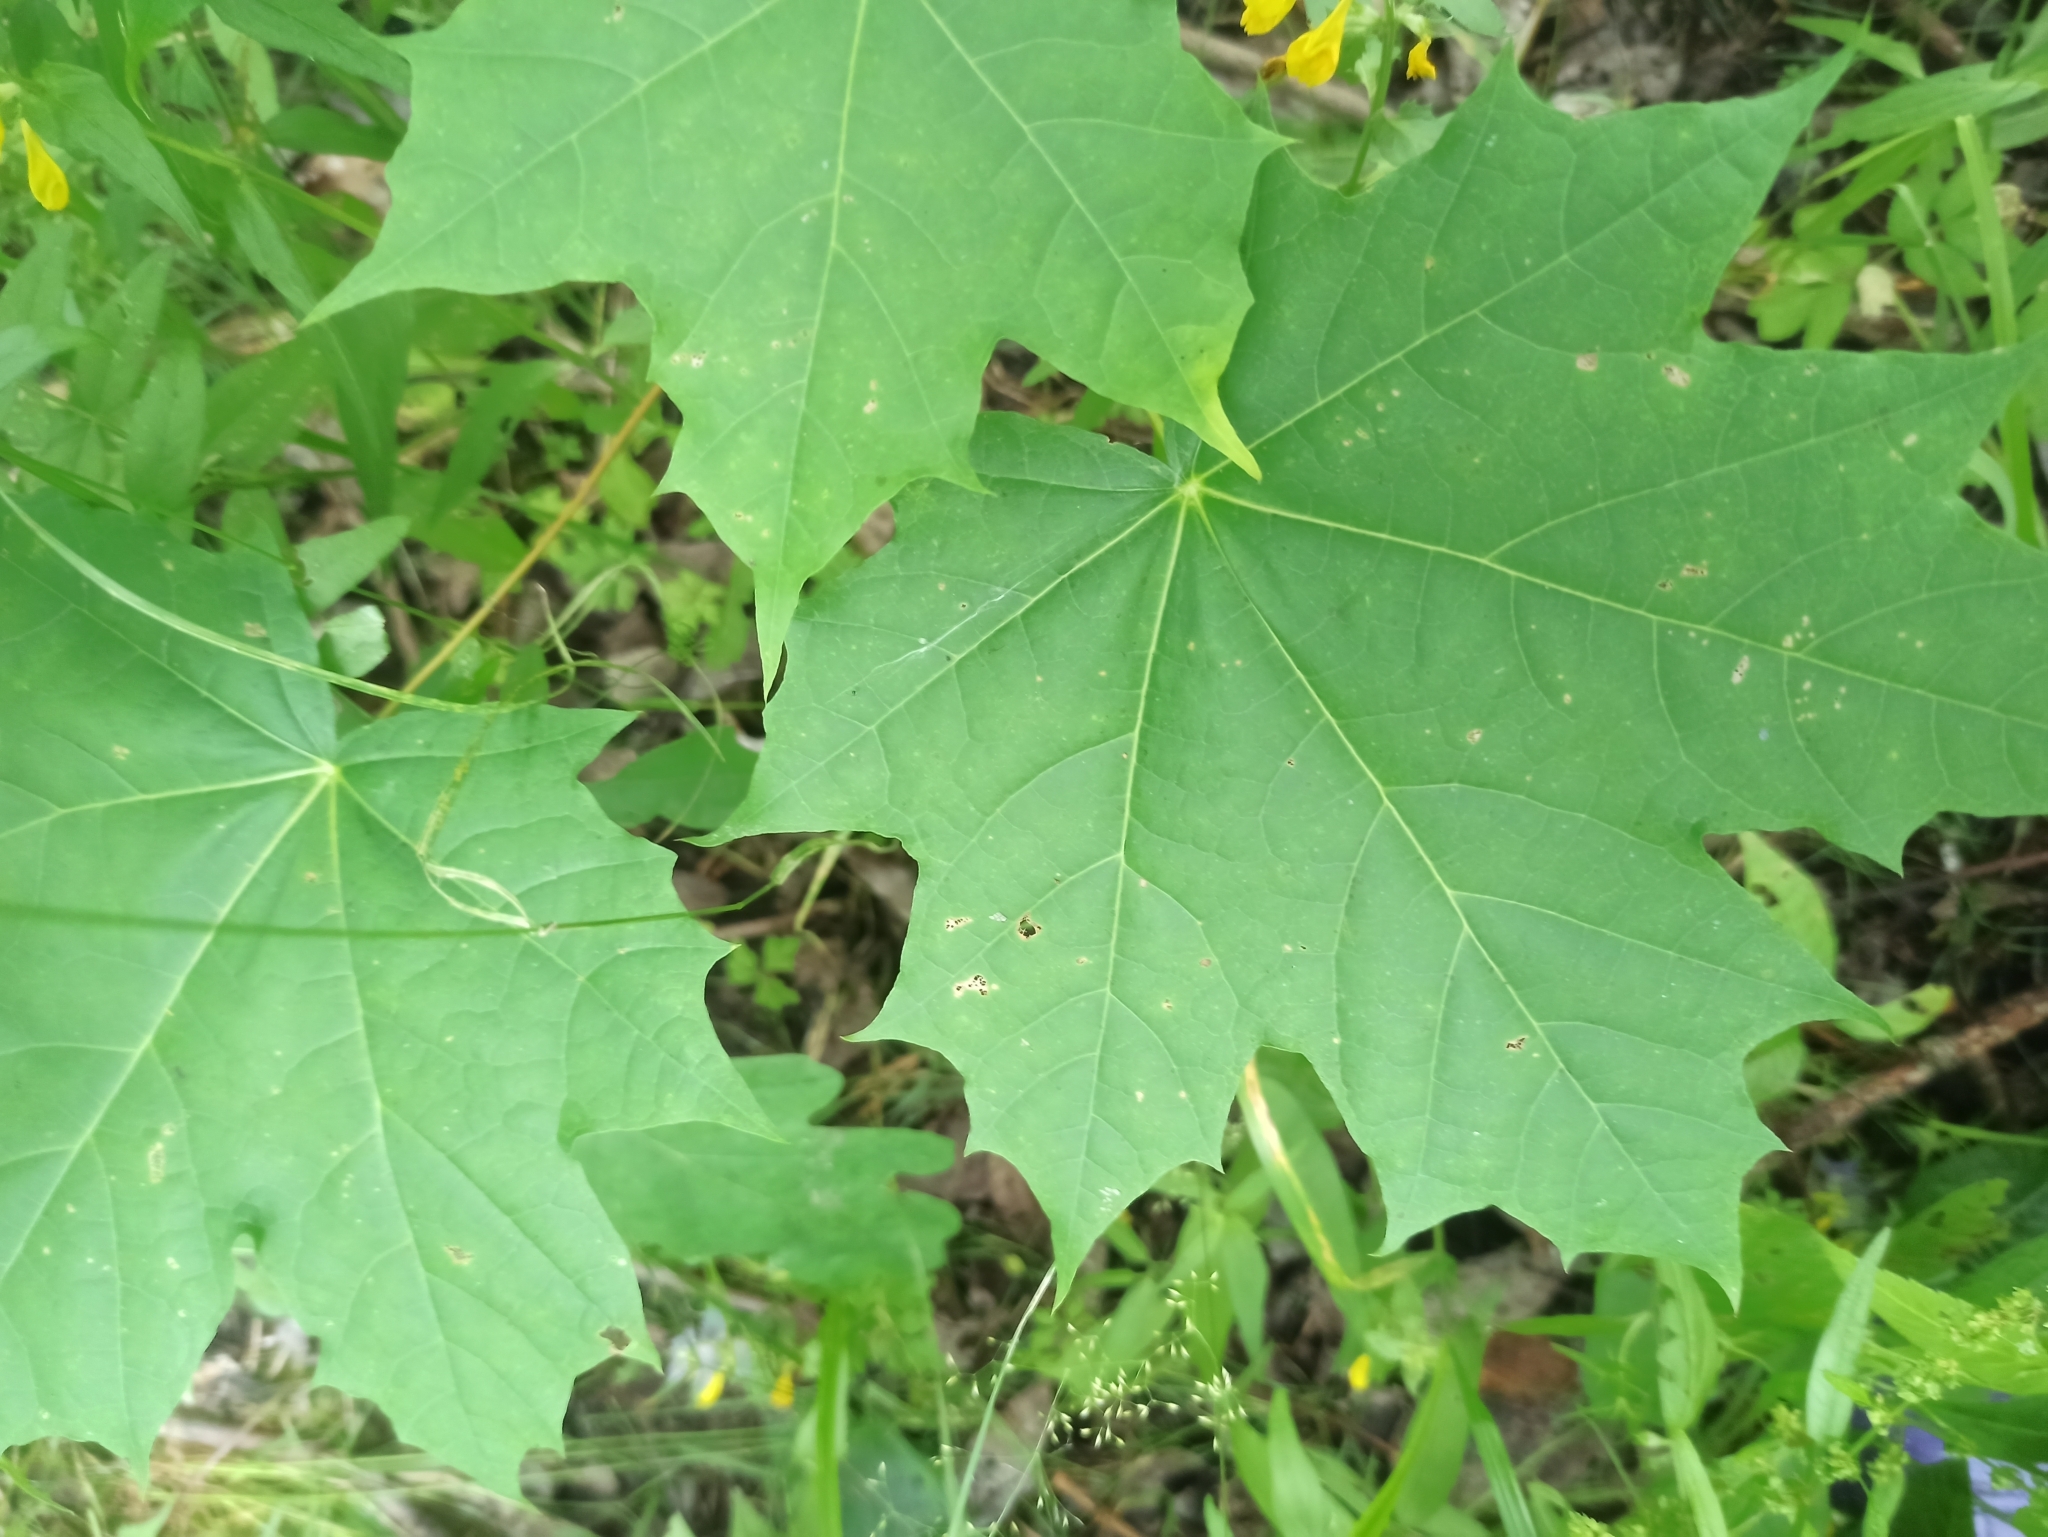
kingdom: Plantae
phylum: Tracheophyta
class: Magnoliopsida
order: Sapindales
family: Sapindaceae
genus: Acer
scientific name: Acer platanoides
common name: Norway maple
